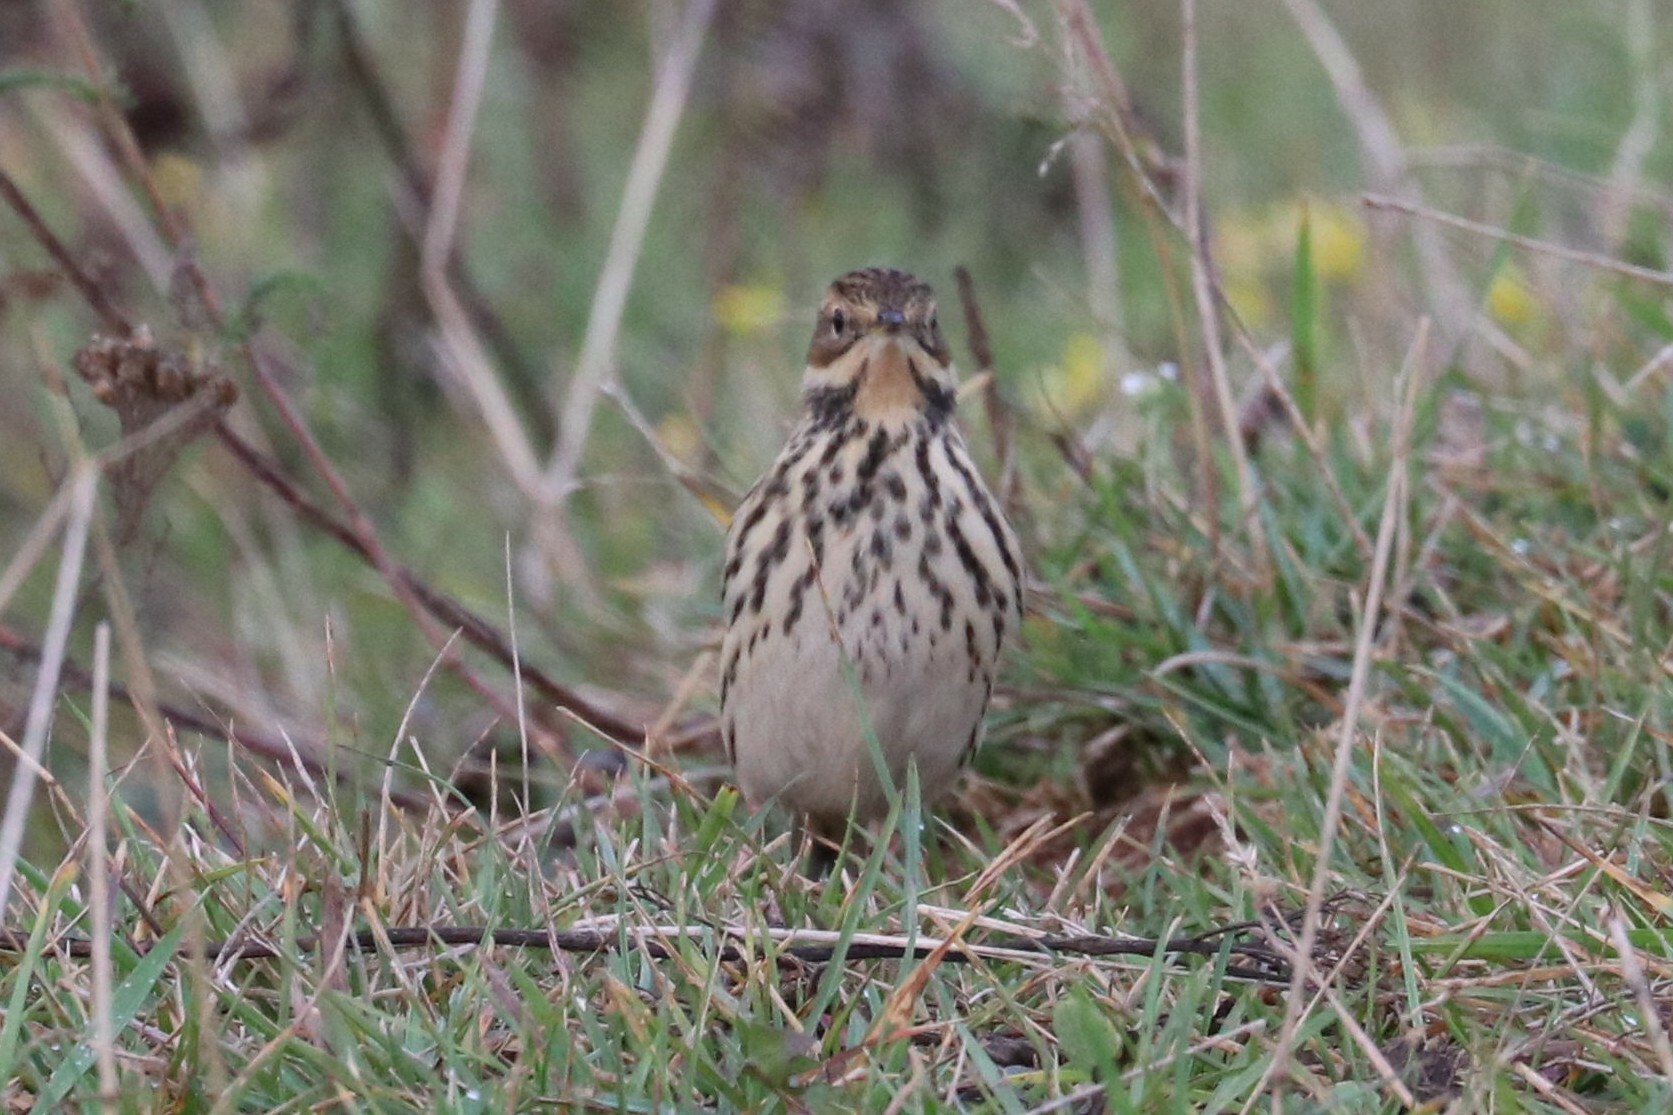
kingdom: Animalia
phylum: Chordata
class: Aves
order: Passeriformes
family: Motacillidae
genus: Anthus
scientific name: Anthus cervinus
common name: Red-throated pipit
